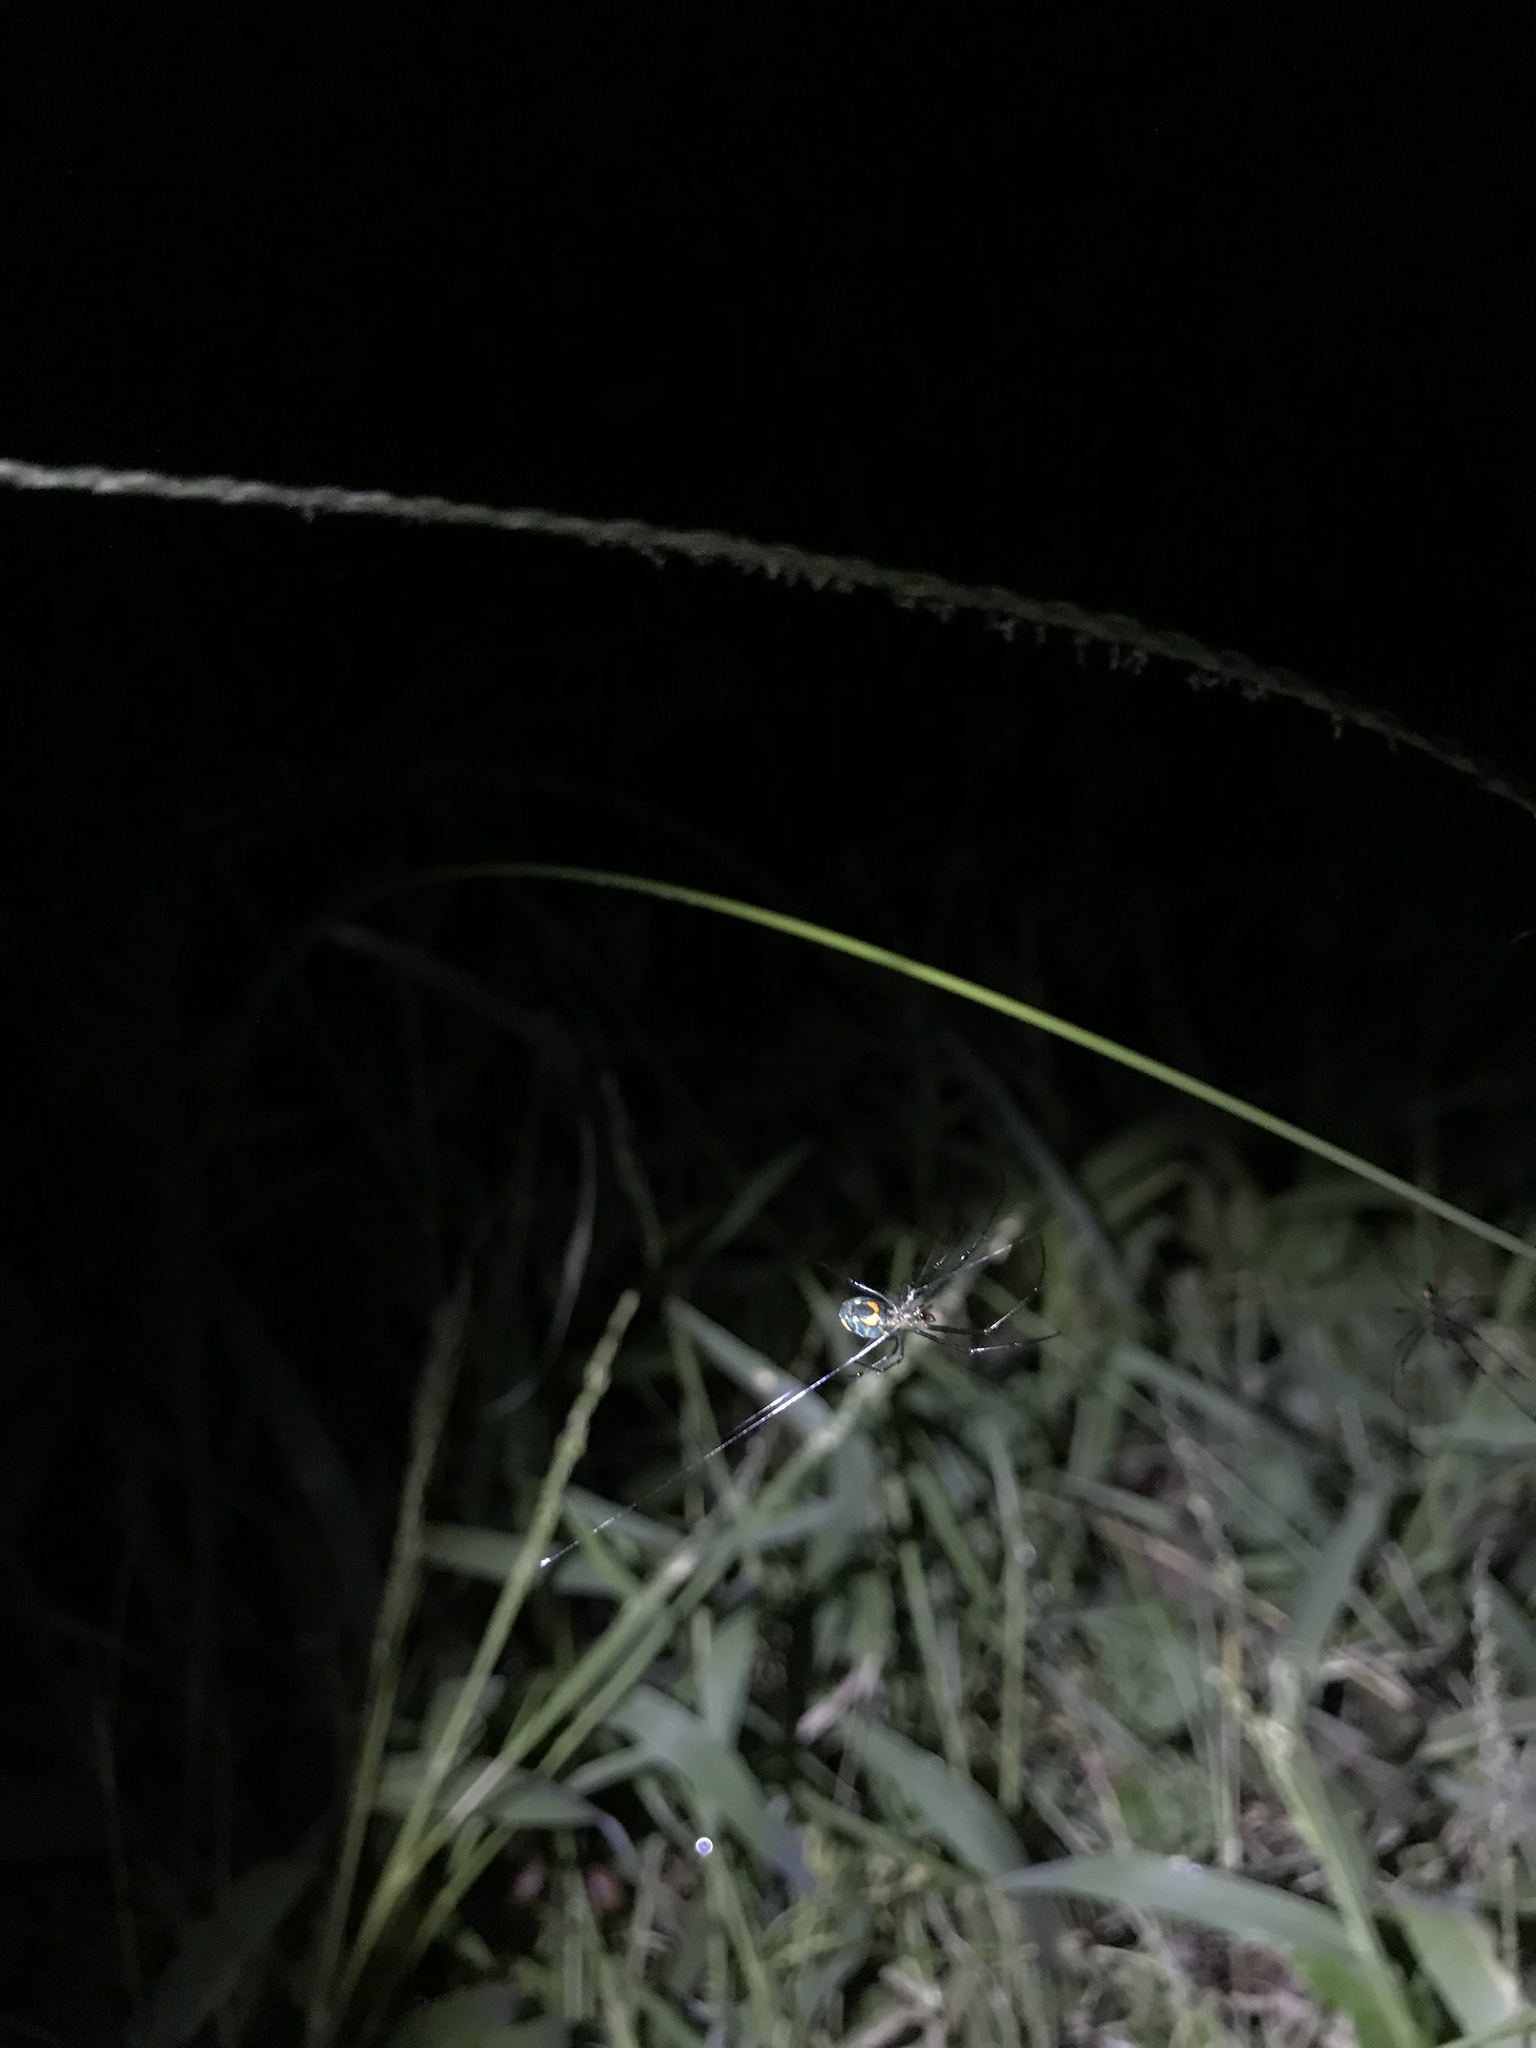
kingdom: Animalia
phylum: Arthropoda
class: Arachnida
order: Araneae
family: Tetragnathidae
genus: Leucauge
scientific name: Leucauge argyrobapta
